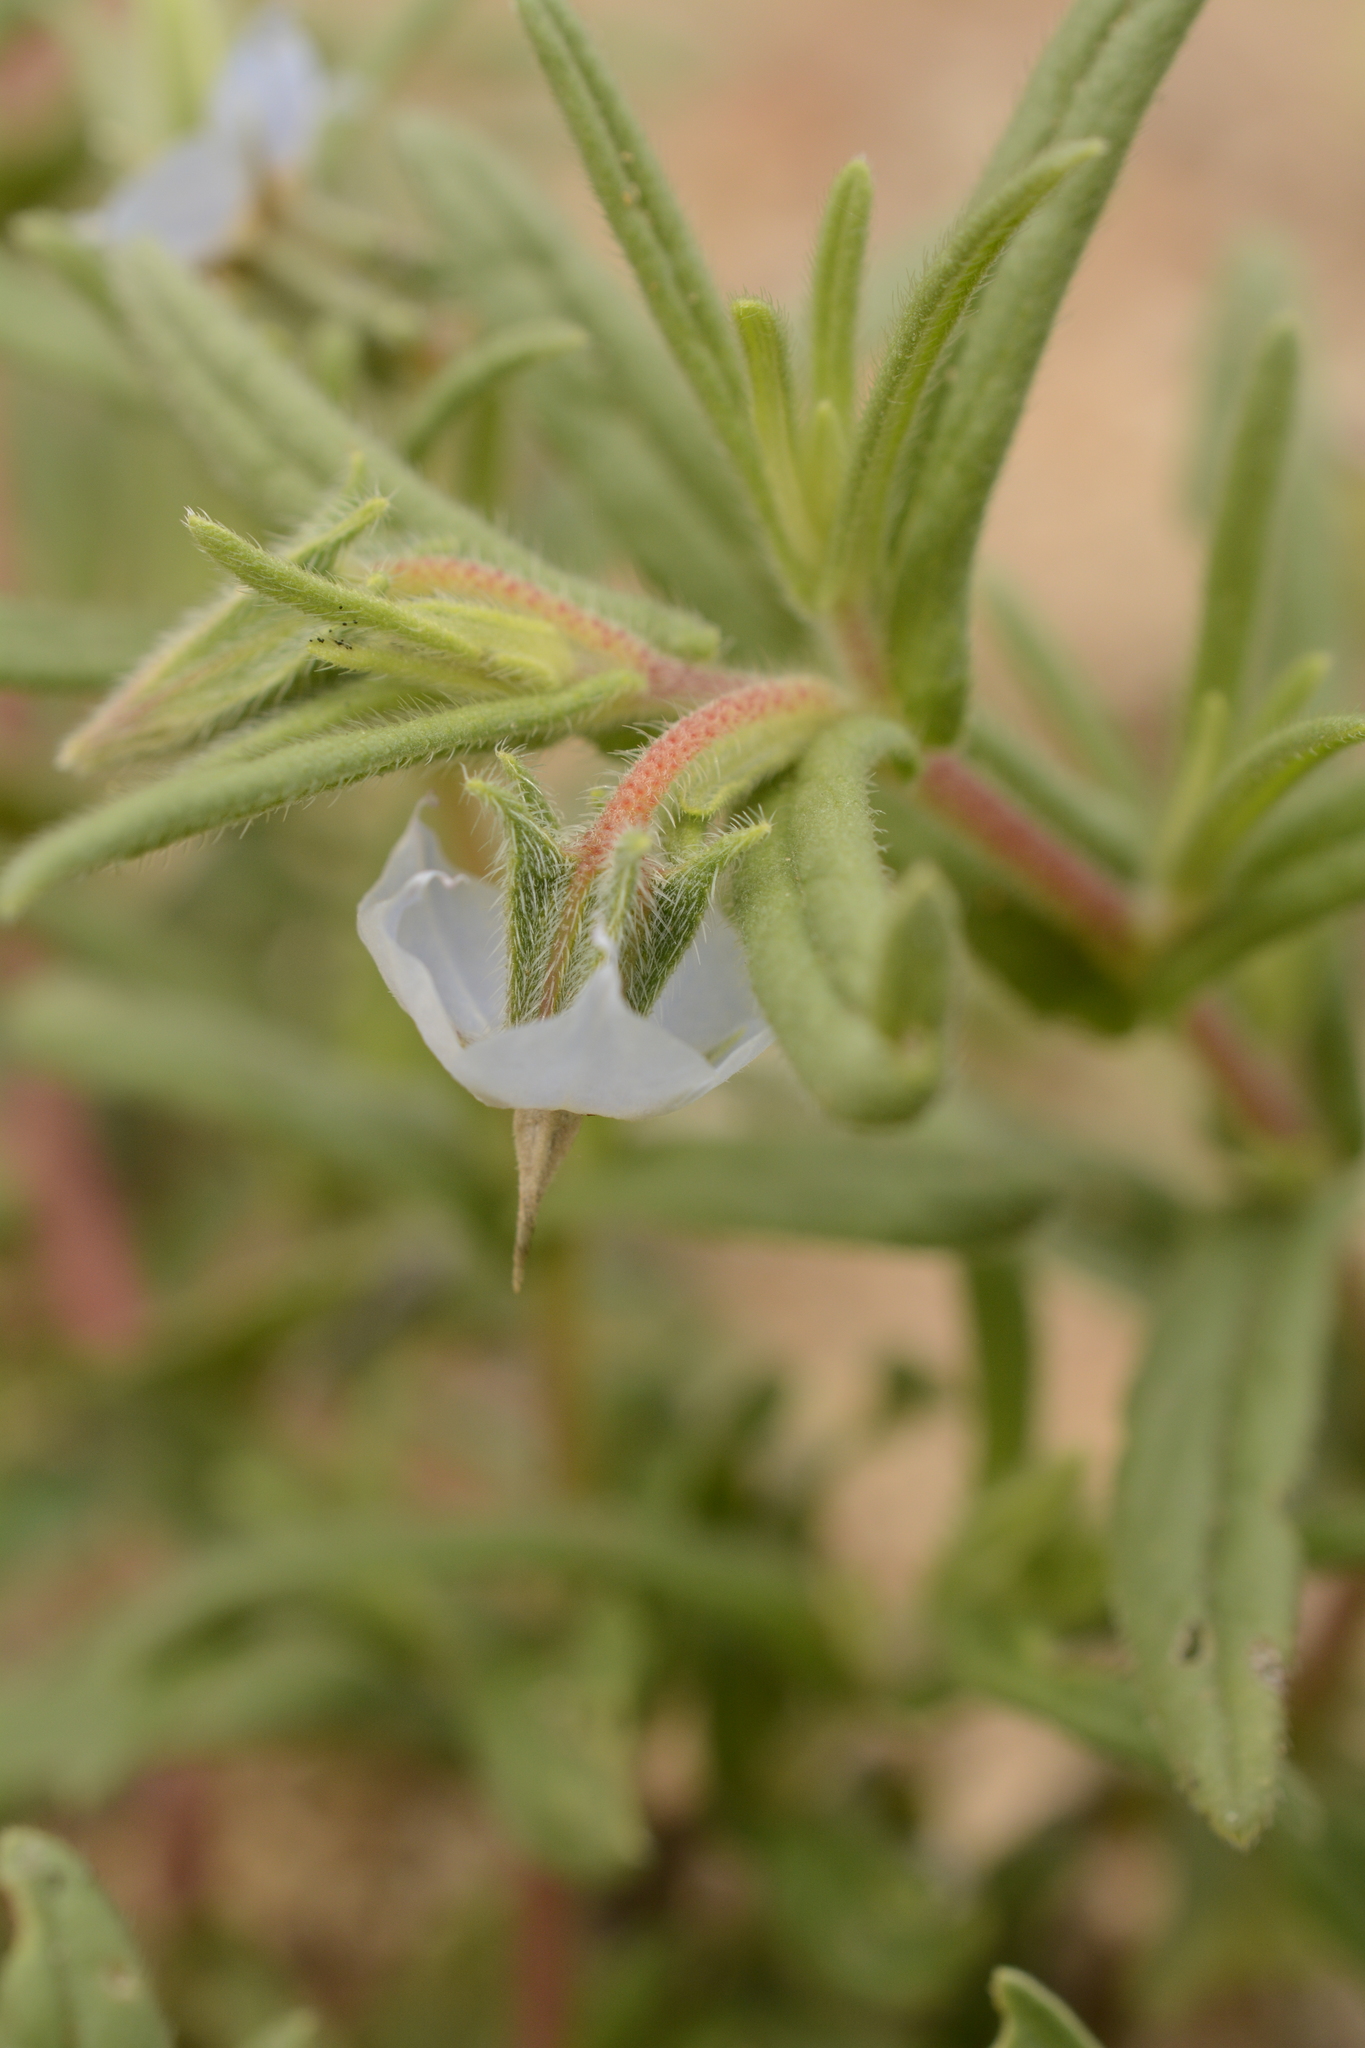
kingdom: Plantae
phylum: Tracheophyta
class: Magnoliopsida
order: Boraginales
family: Boraginaceae
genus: Trichodesma
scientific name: Trichodesma indicum
